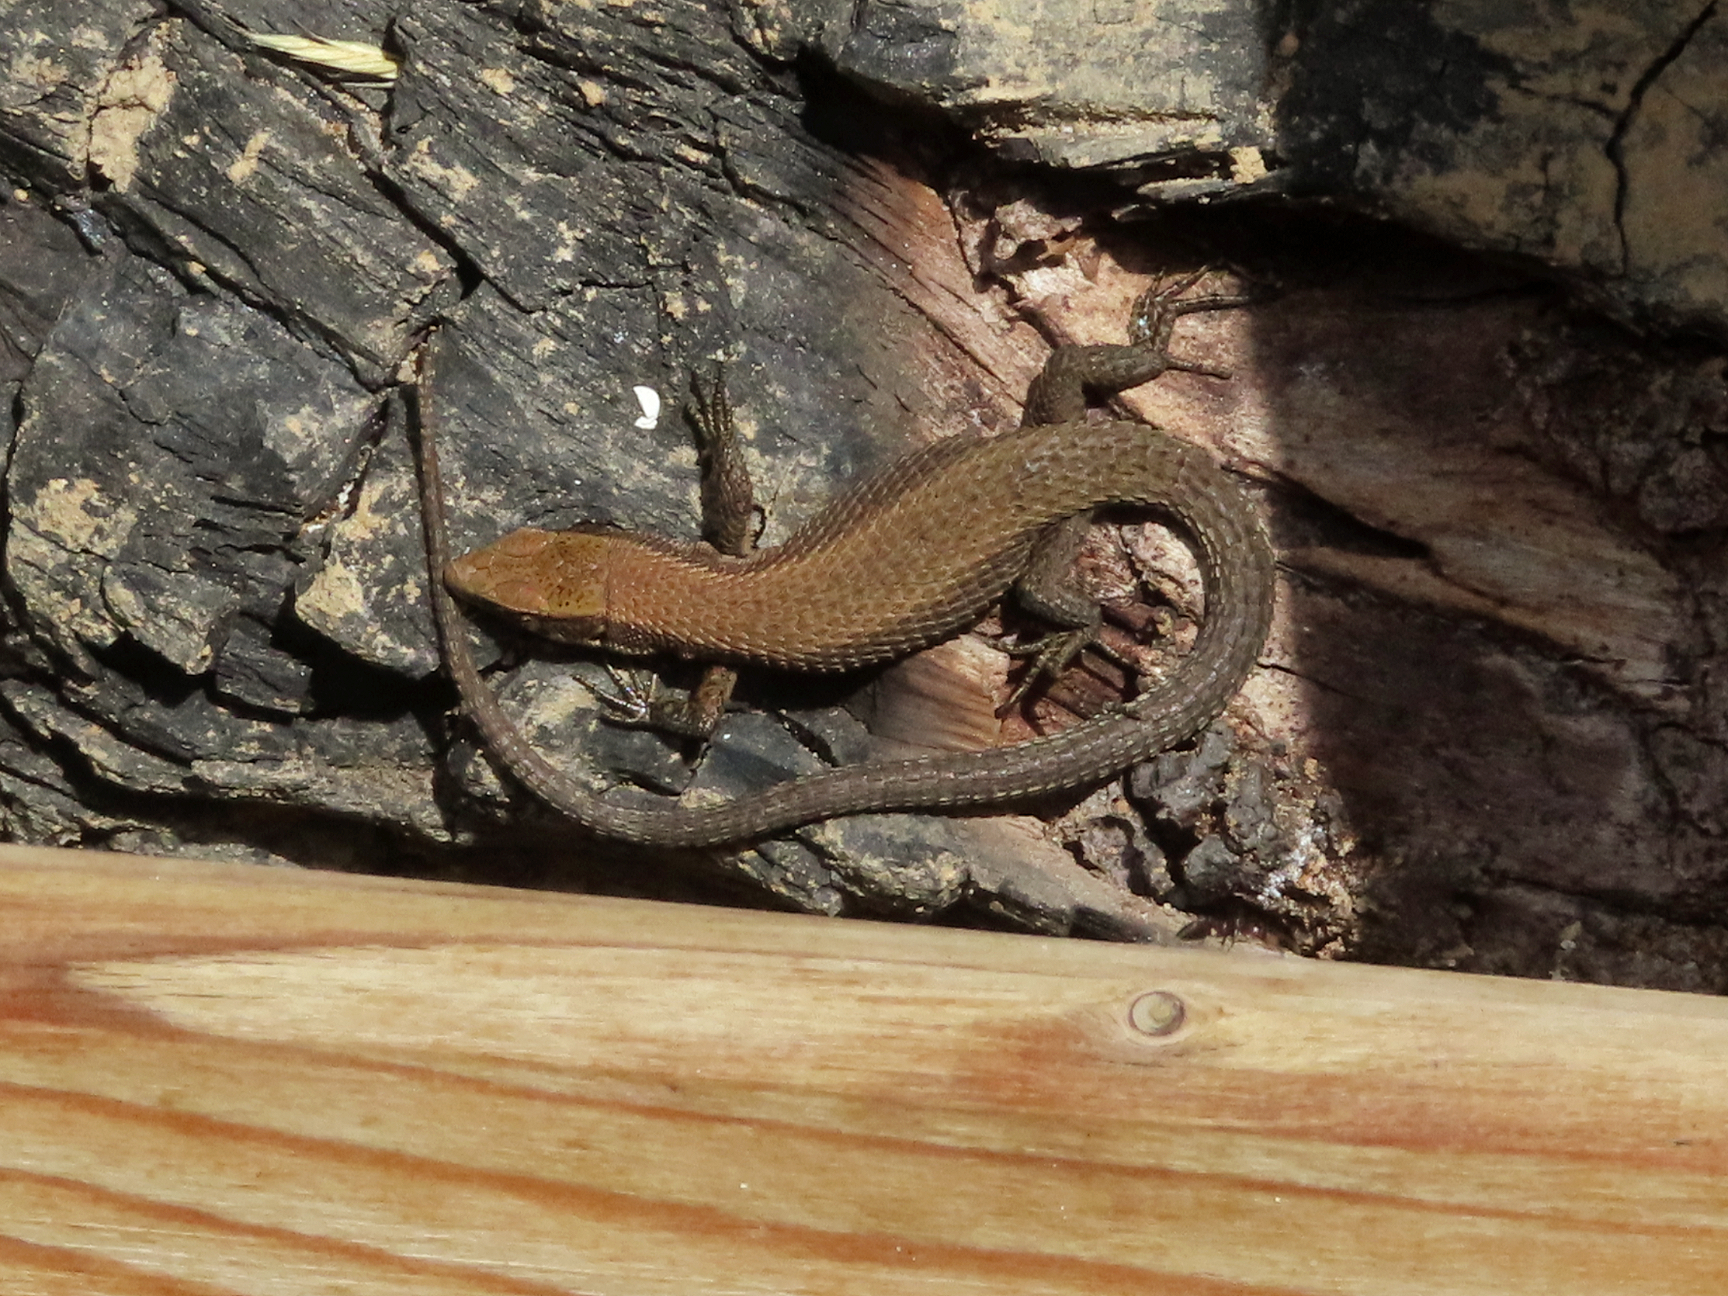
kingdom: Animalia
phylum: Chordata
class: Squamata
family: Lacertidae
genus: Algyroides
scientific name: Algyroides moreoticus
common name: Greek algyroides
